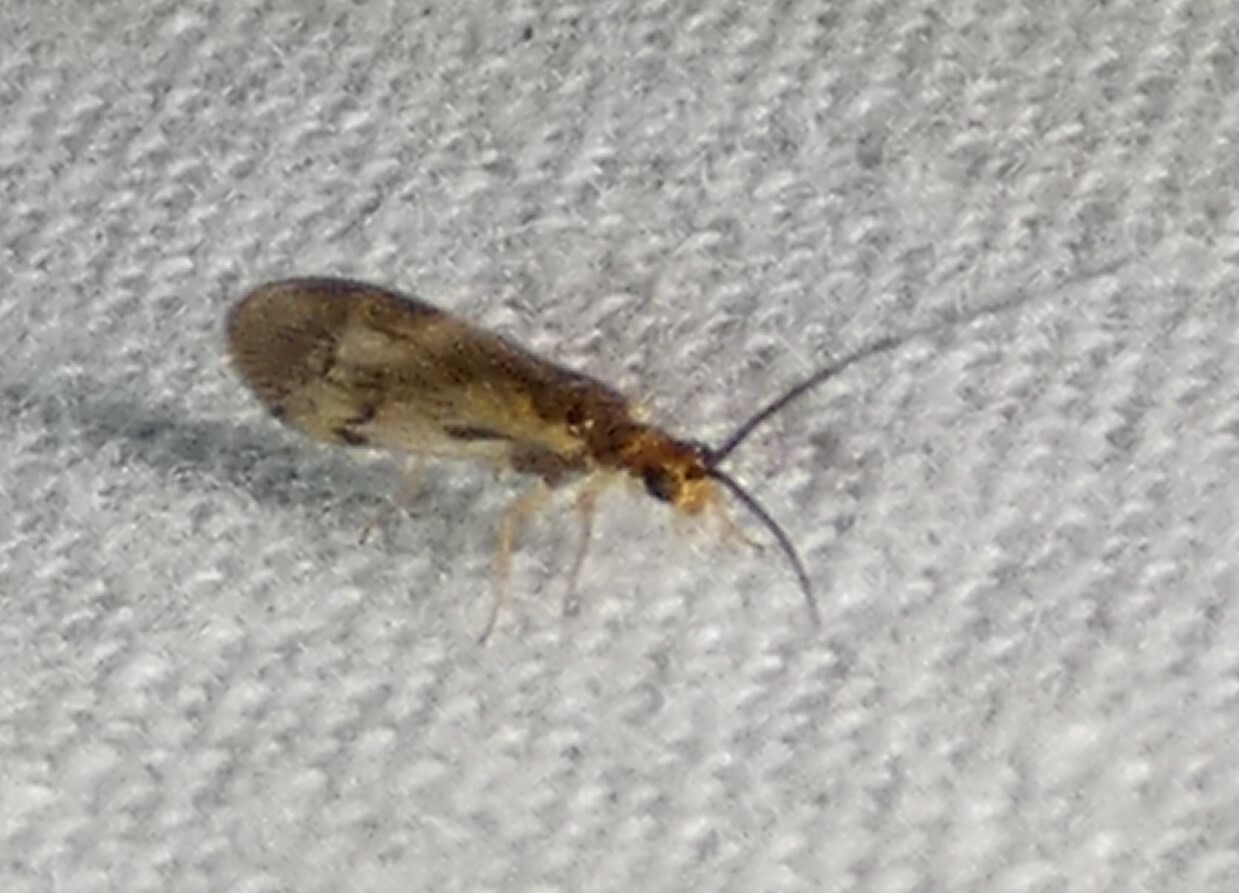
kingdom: Animalia
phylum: Arthropoda
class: Insecta
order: Neuroptera
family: Sisyridae
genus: Climacia
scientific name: Climacia areolaris
